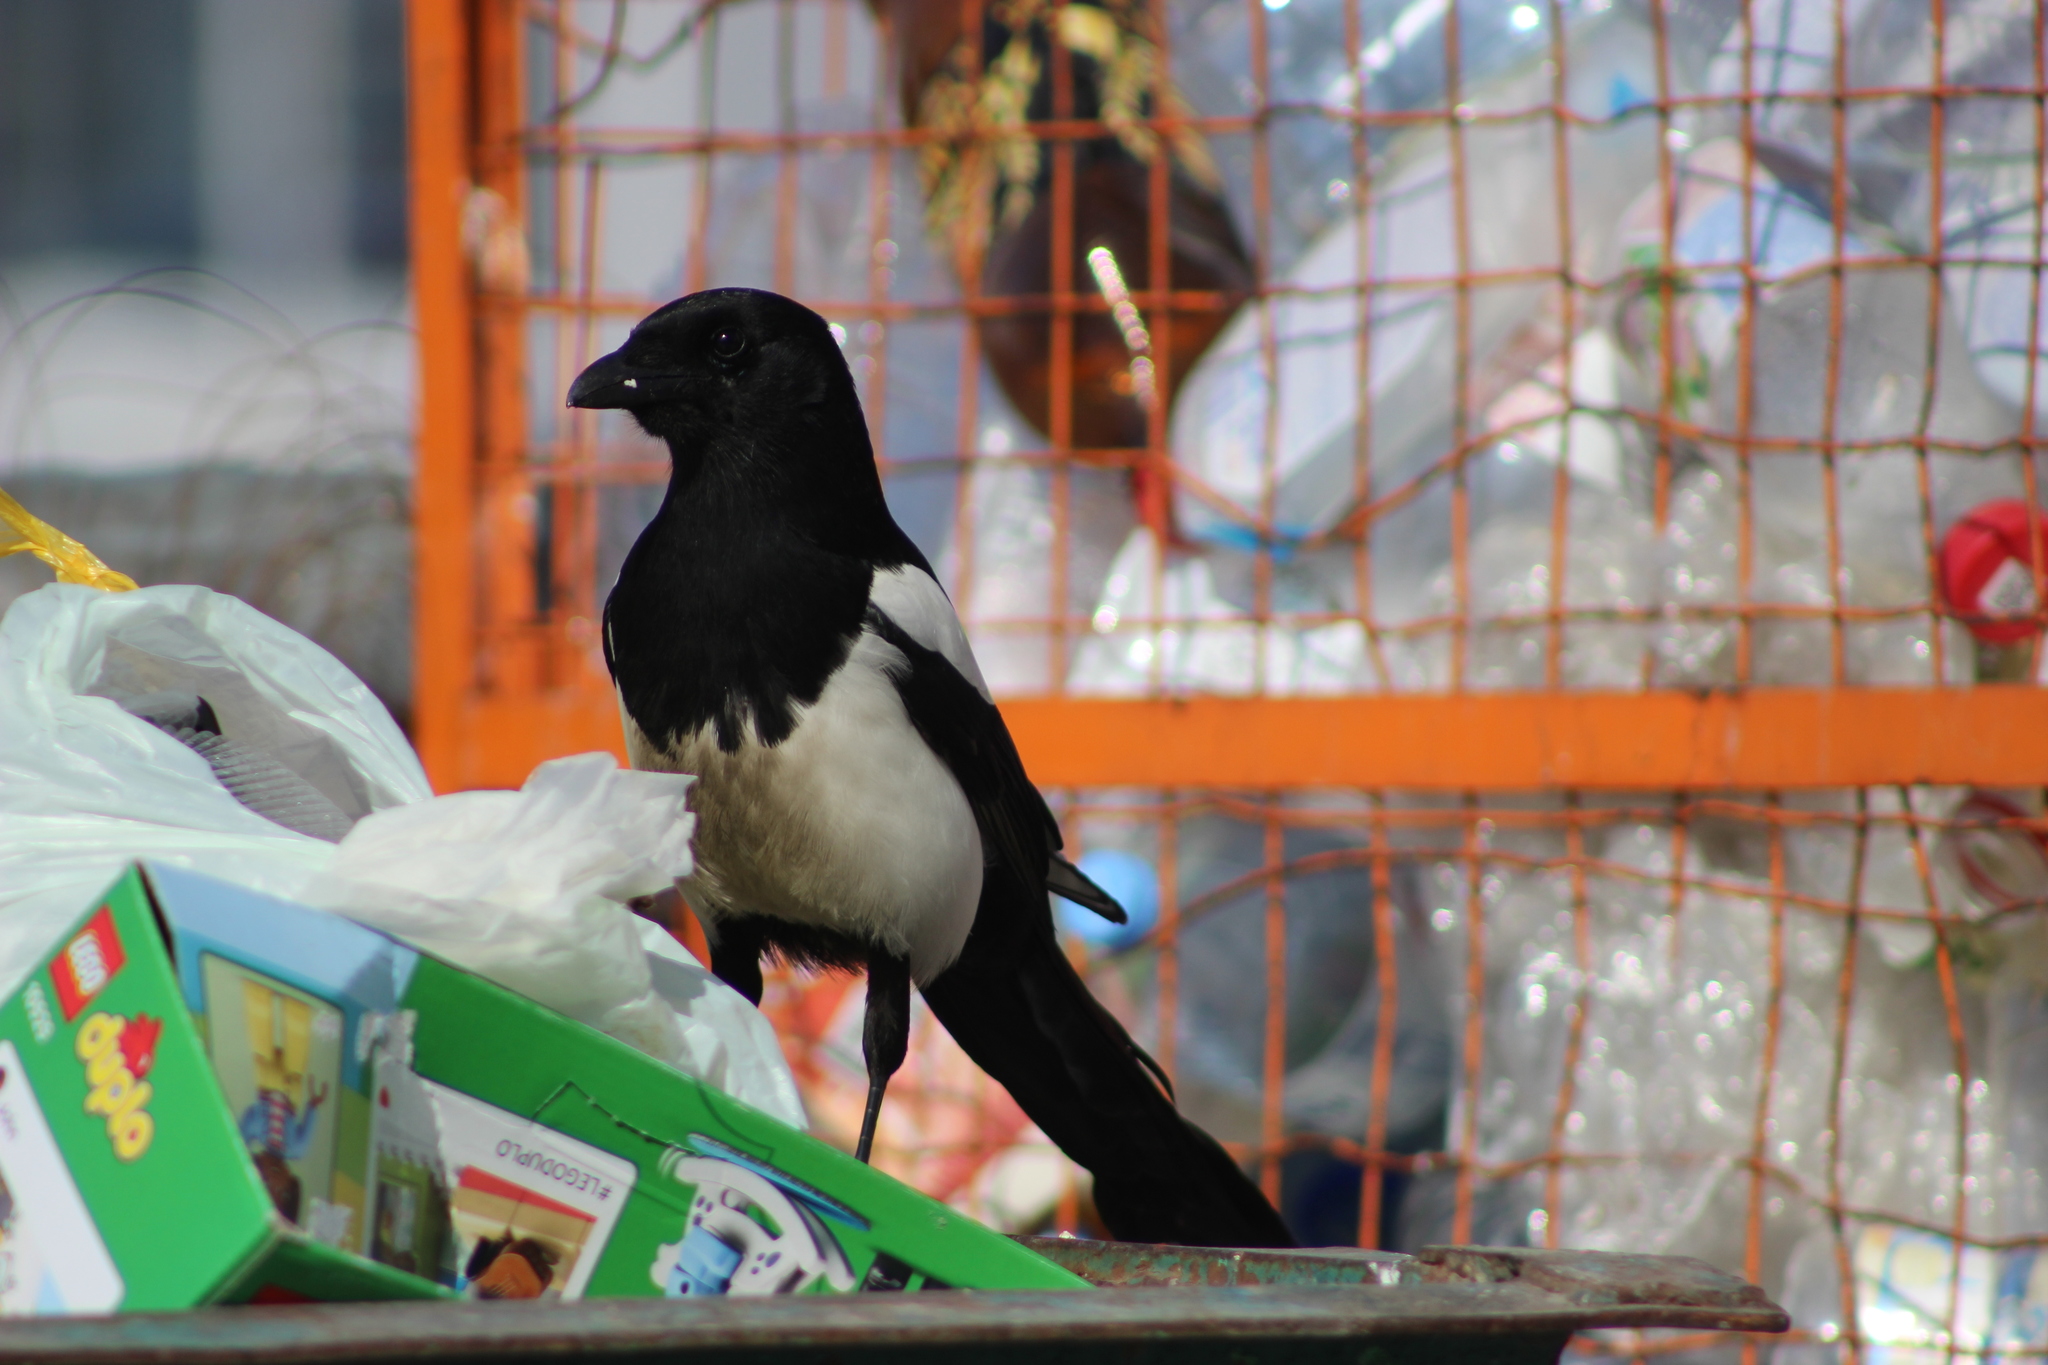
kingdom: Animalia
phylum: Chordata
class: Aves
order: Passeriformes
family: Corvidae
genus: Pica
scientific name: Pica pica
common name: Eurasian magpie
